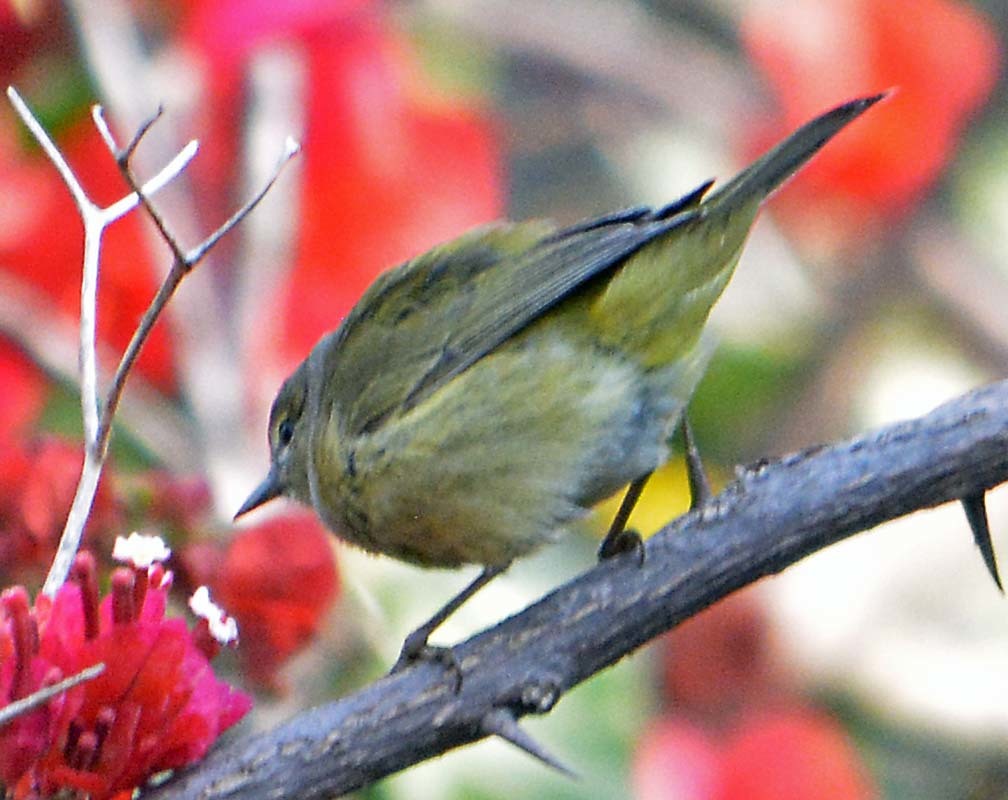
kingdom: Animalia
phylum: Chordata
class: Aves
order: Passeriformes
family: Parulidae
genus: Leiothlypis
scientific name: Leiothlypis celata
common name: Orange-crowned warbler
